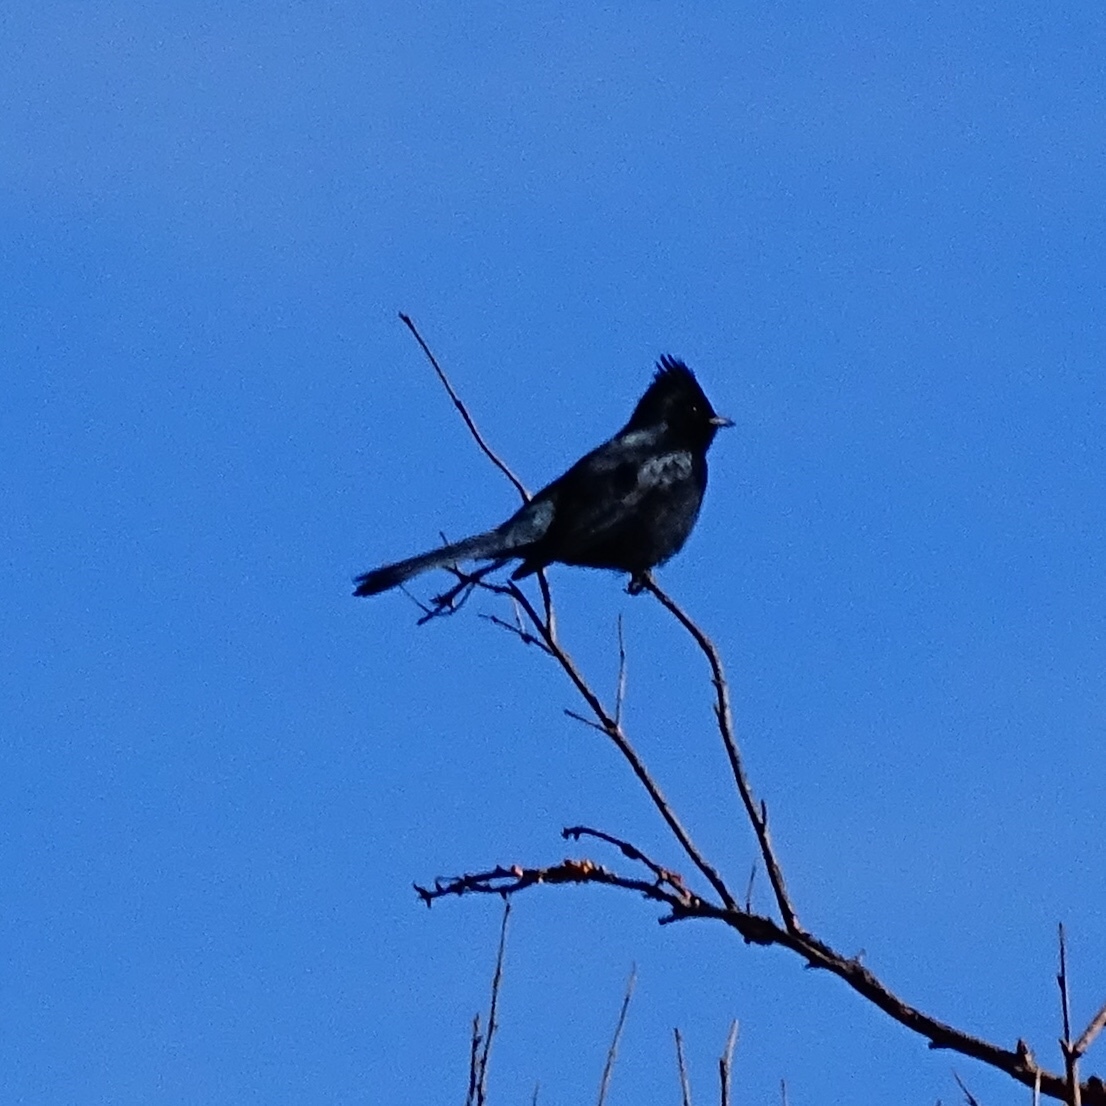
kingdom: Animalia
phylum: Chordata
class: Aves
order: Passeriformes
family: Ptilogonatidae
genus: Phainopepla
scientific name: Phainopepla nitens
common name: Phainopepla
